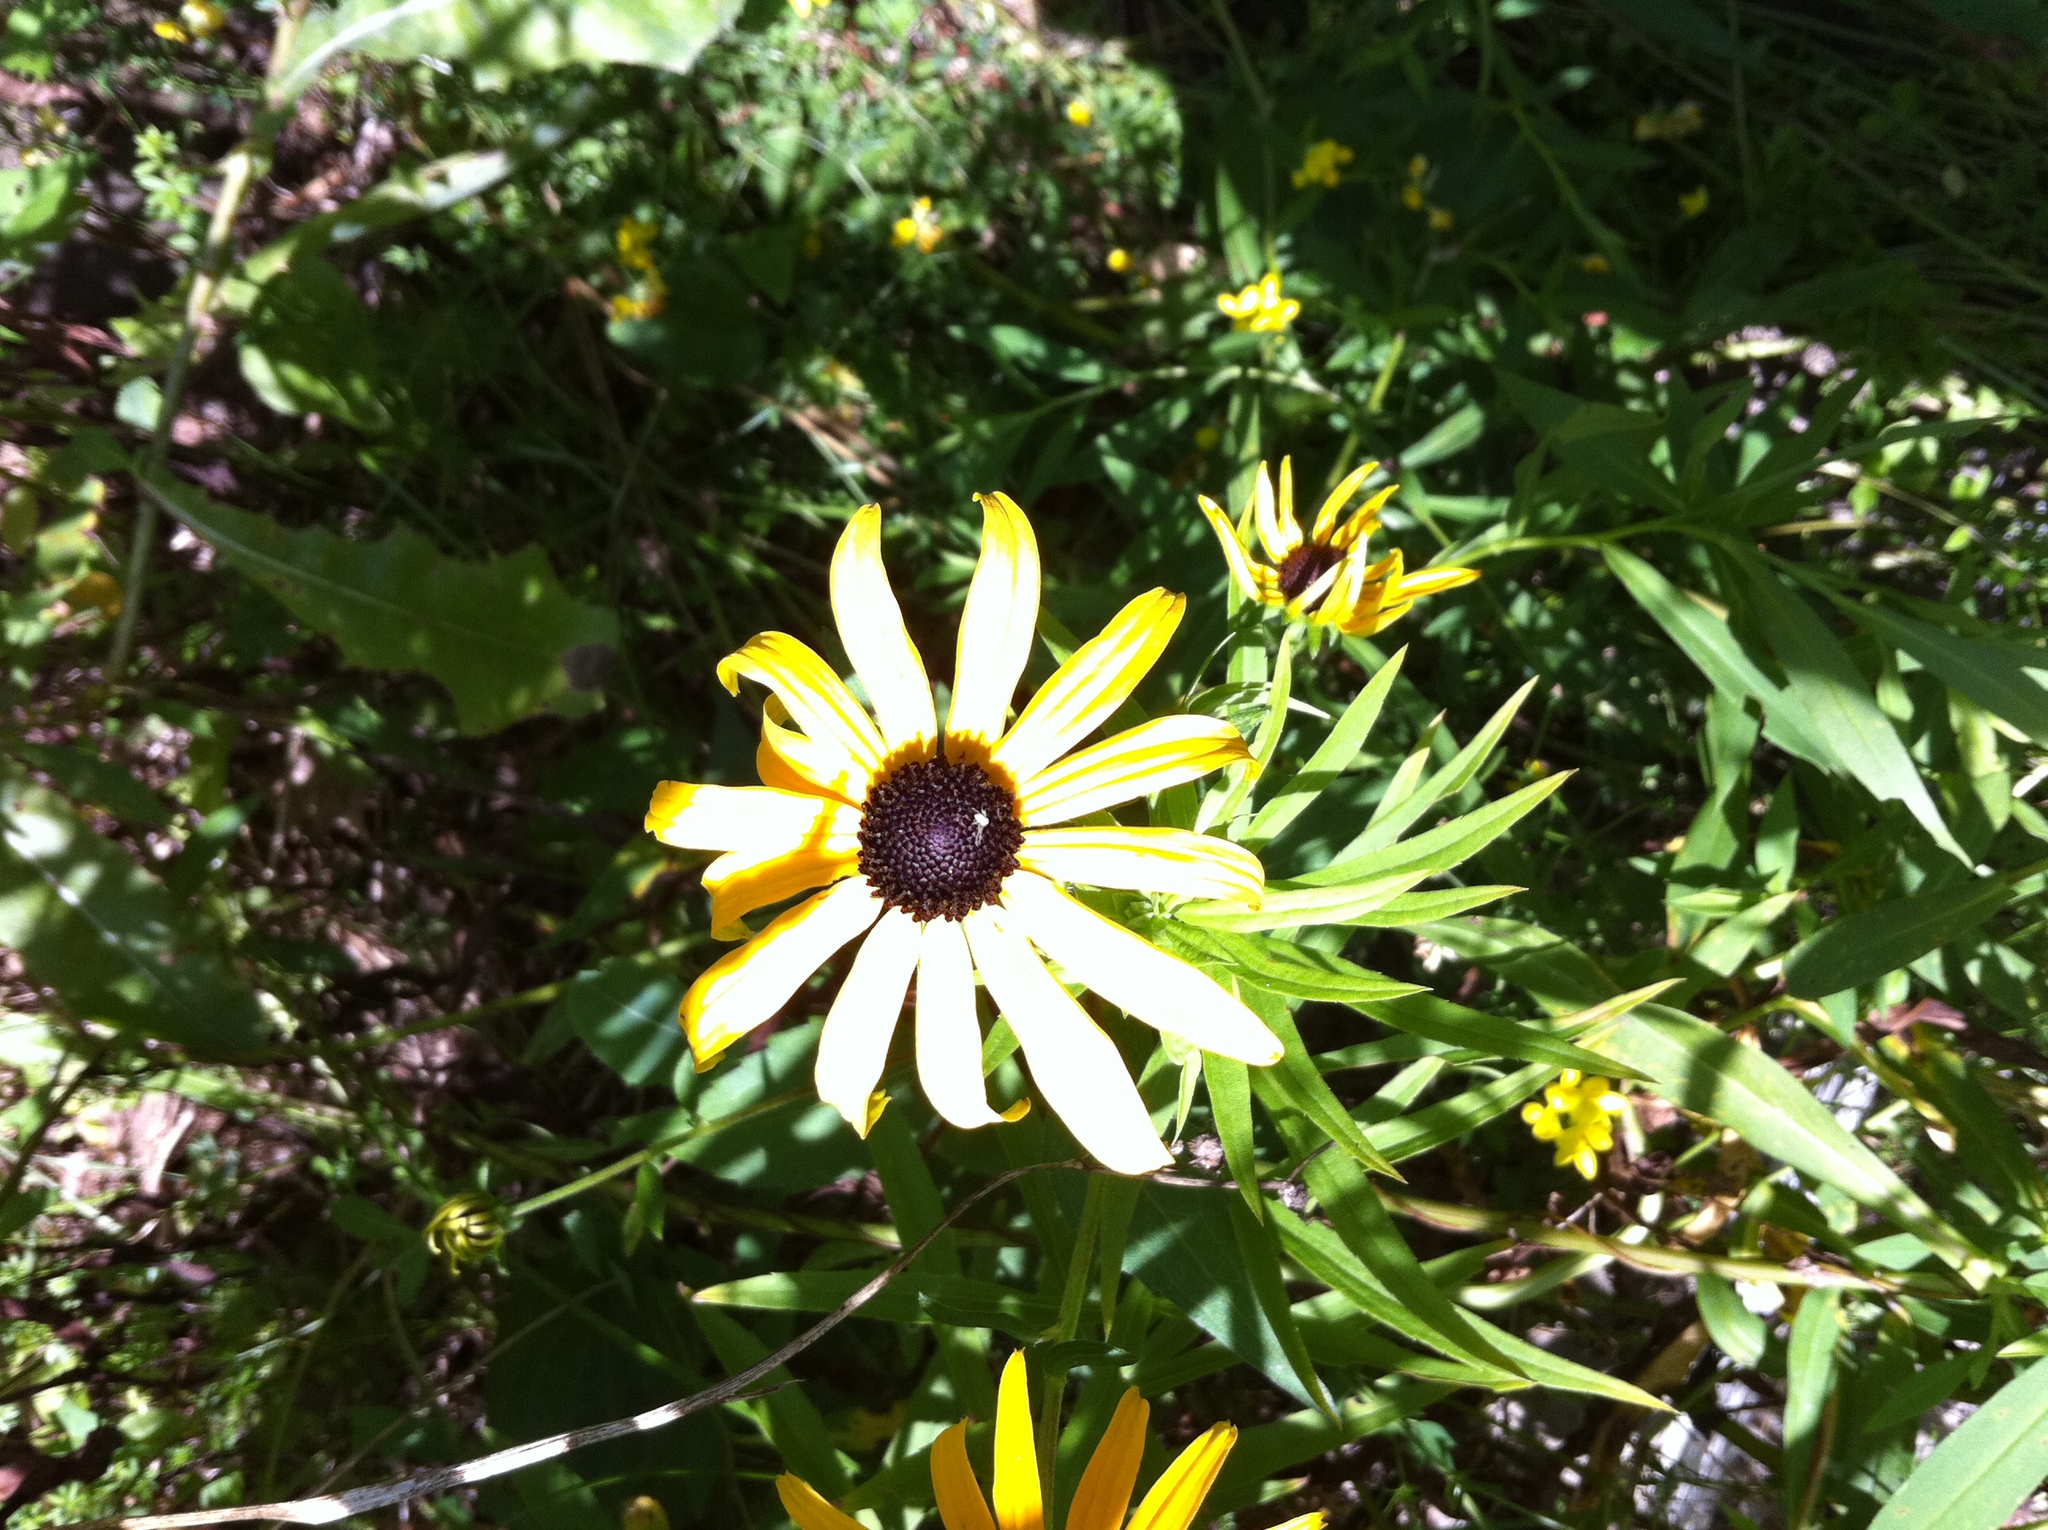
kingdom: Plantae
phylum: Tracheophyta
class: Magnoliopsida
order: Asterales
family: Asteraceae
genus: Rudbeckia
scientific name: Rudbeckia hirta
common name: Black-eyed-susan
